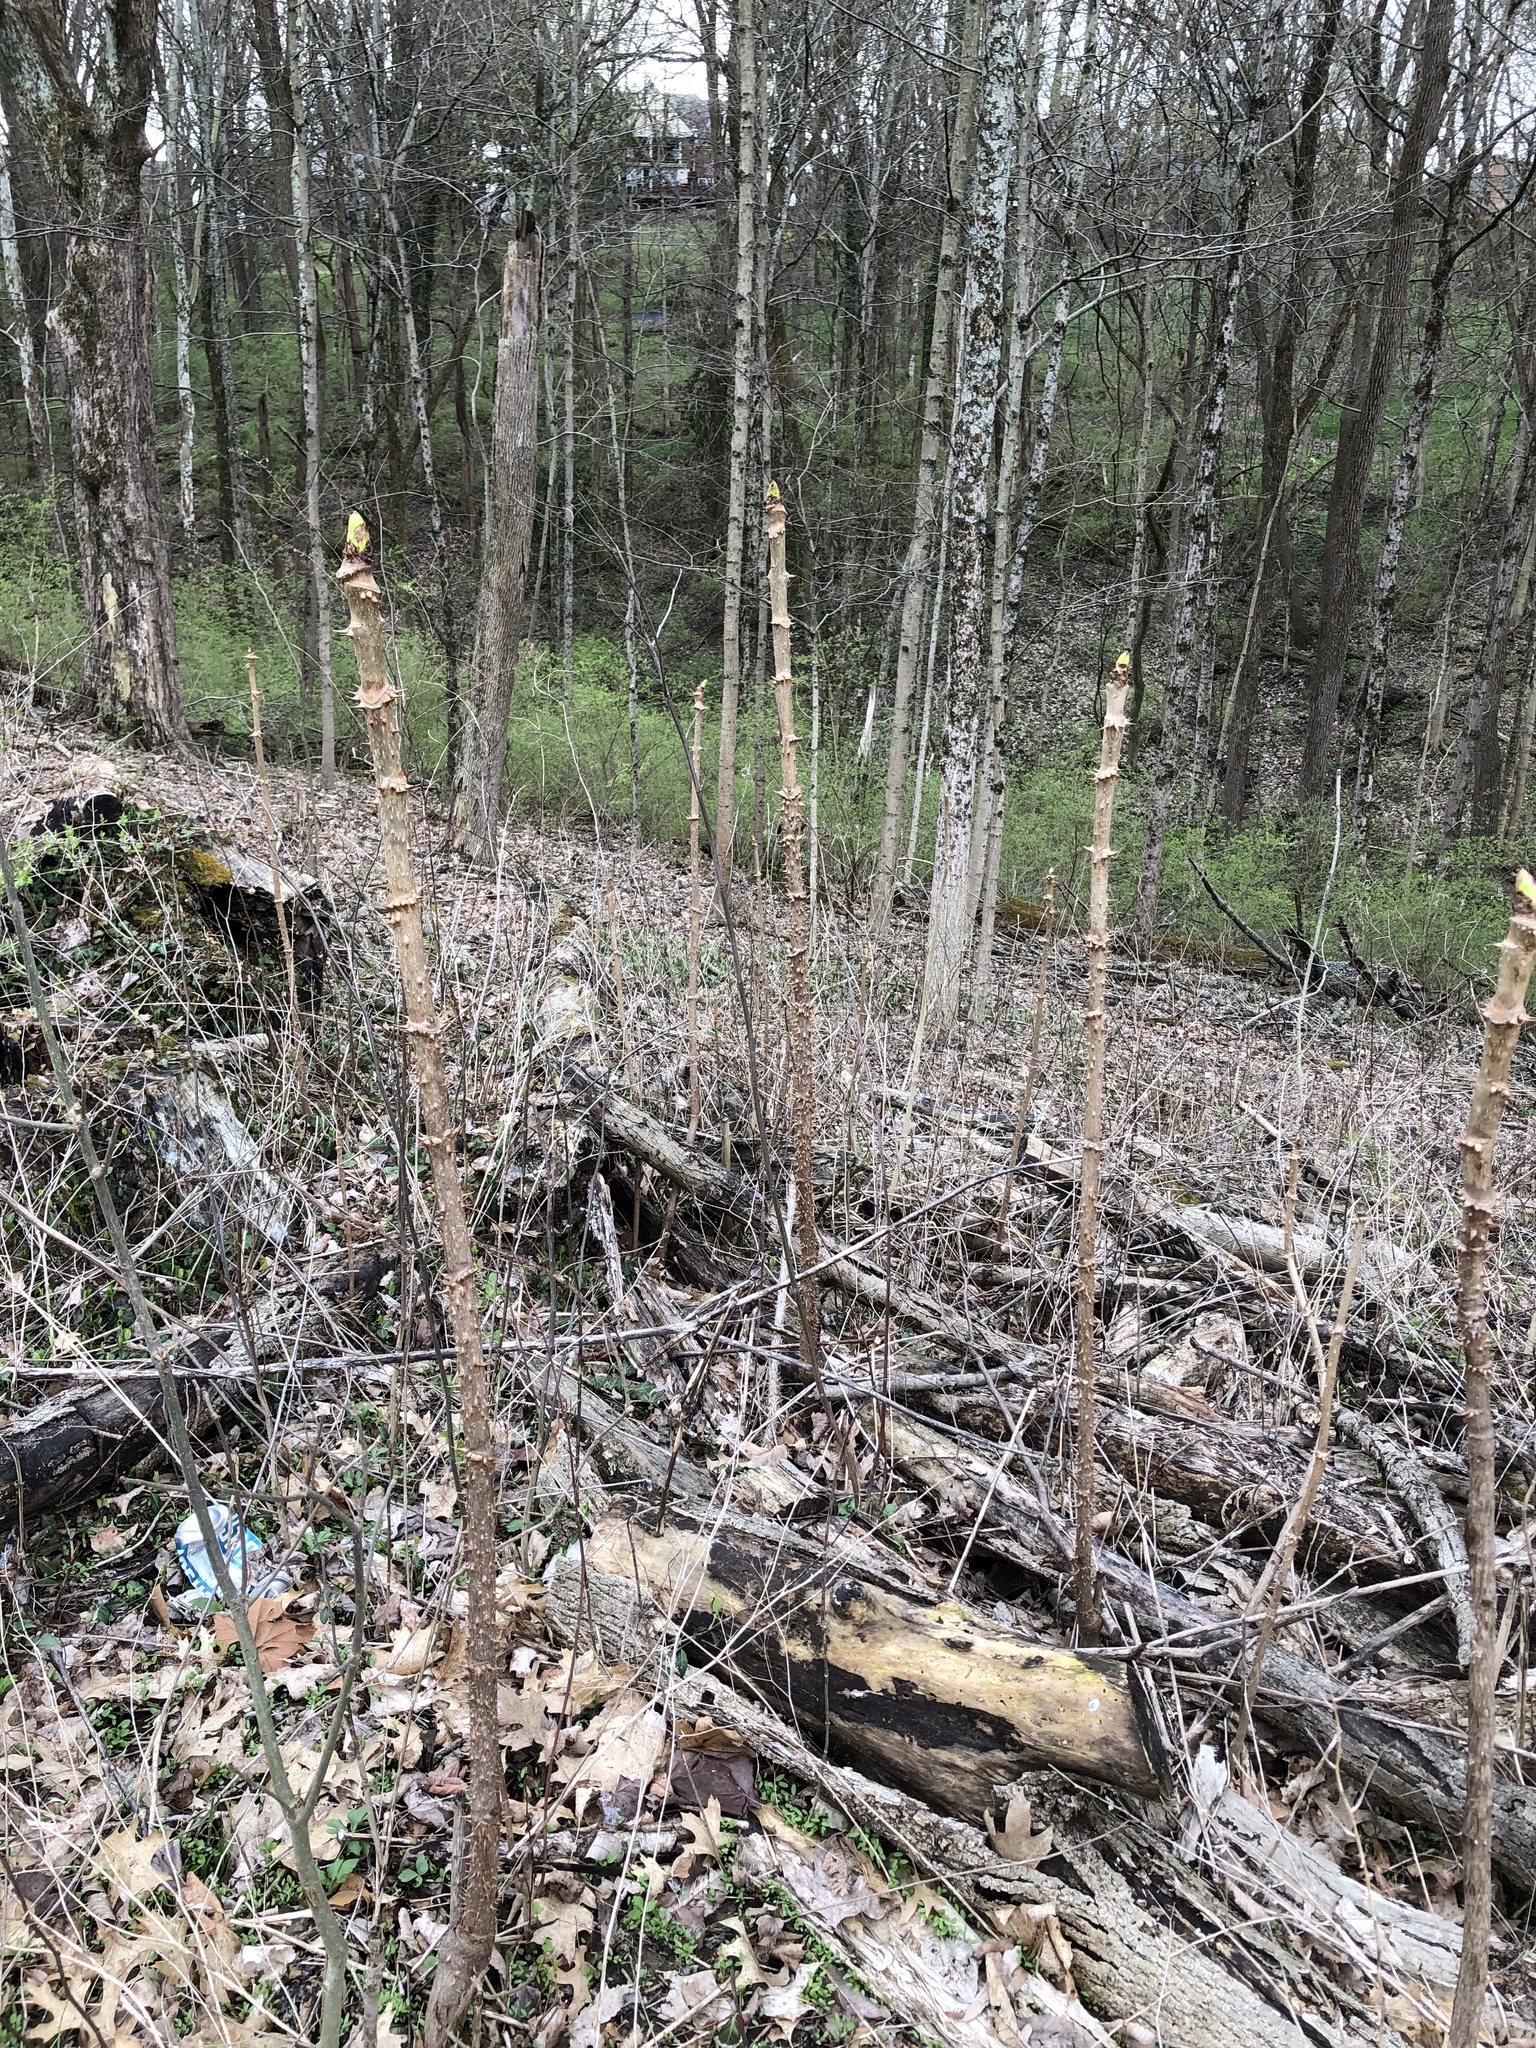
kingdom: Plantae
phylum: Tracheophyta
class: Magnoliopsida
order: Apiales
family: Araliaceae
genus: Aralia
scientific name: Aralia spinosa
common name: Hercules'-club
